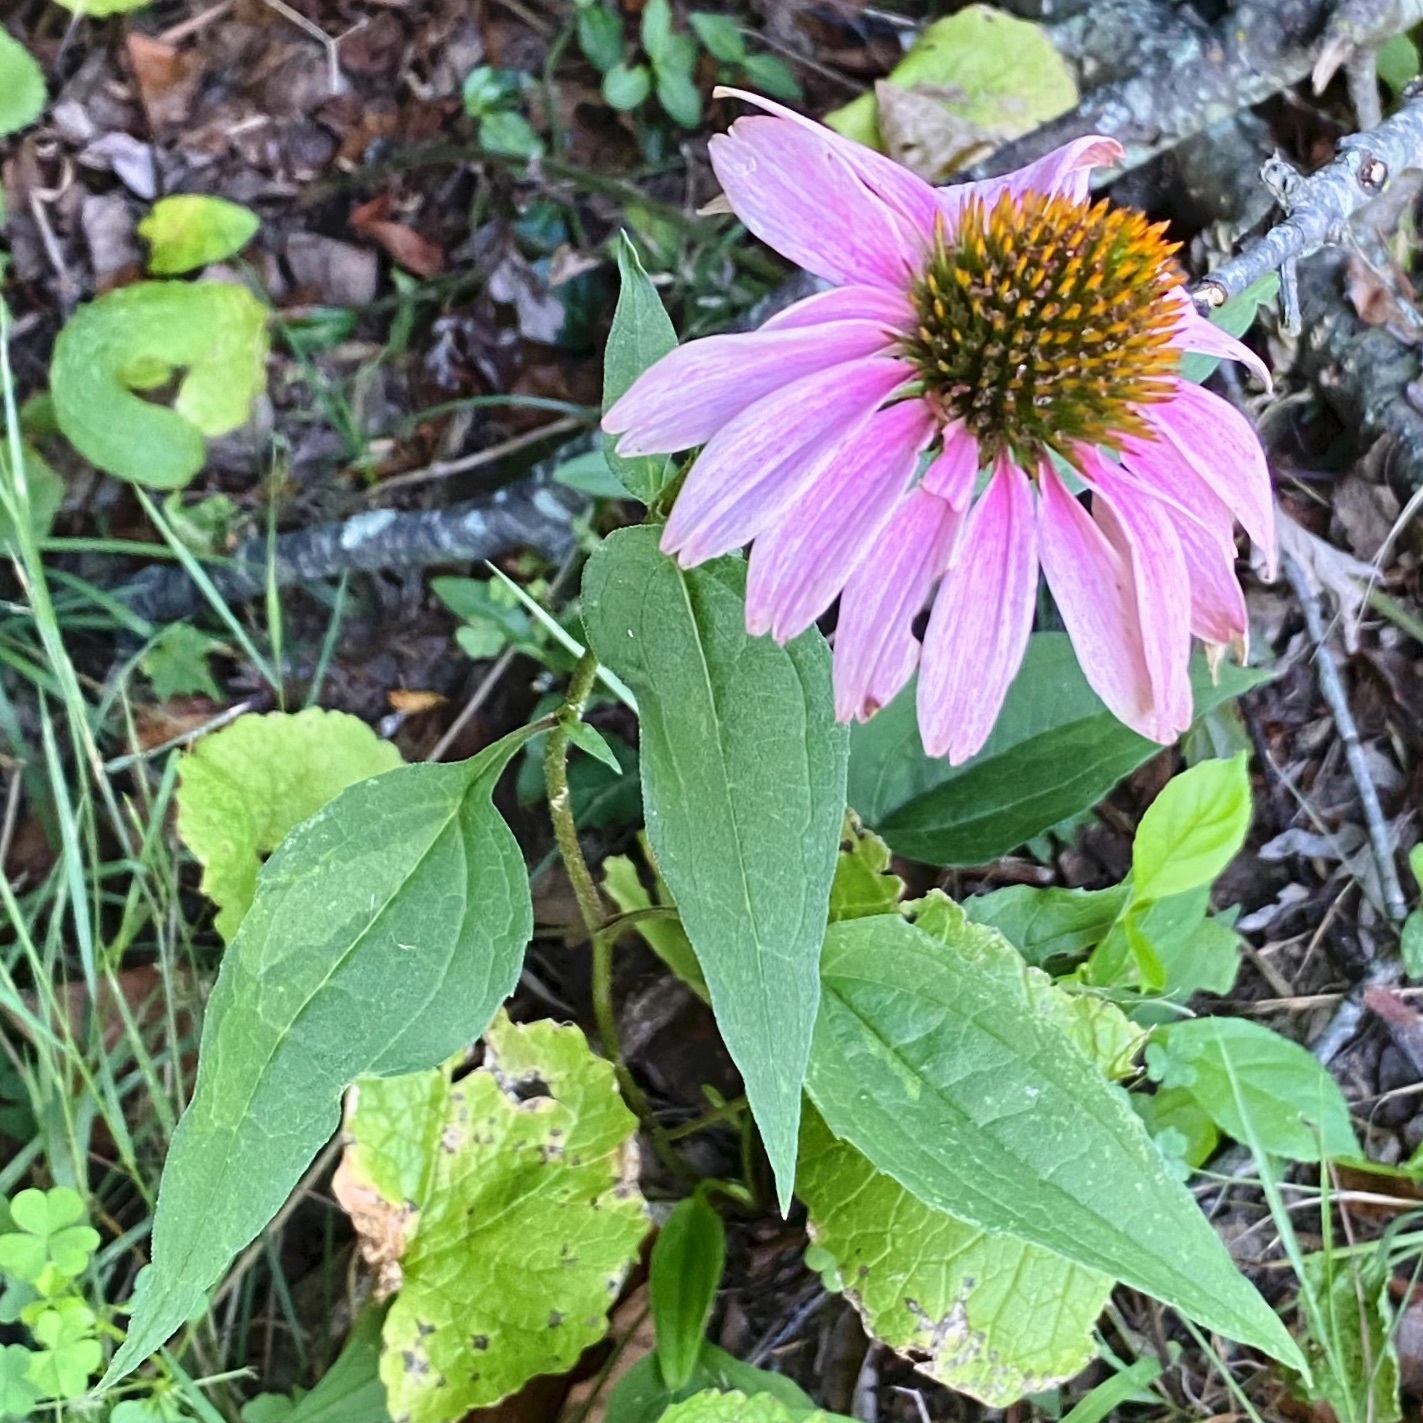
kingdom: Plantae
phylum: Tracheophyta
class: Magnoliopsida
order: Asterales
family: Asteraceae
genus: Echinacea
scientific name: Echinacea purpurea
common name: Broad-leaved purple coneflower
